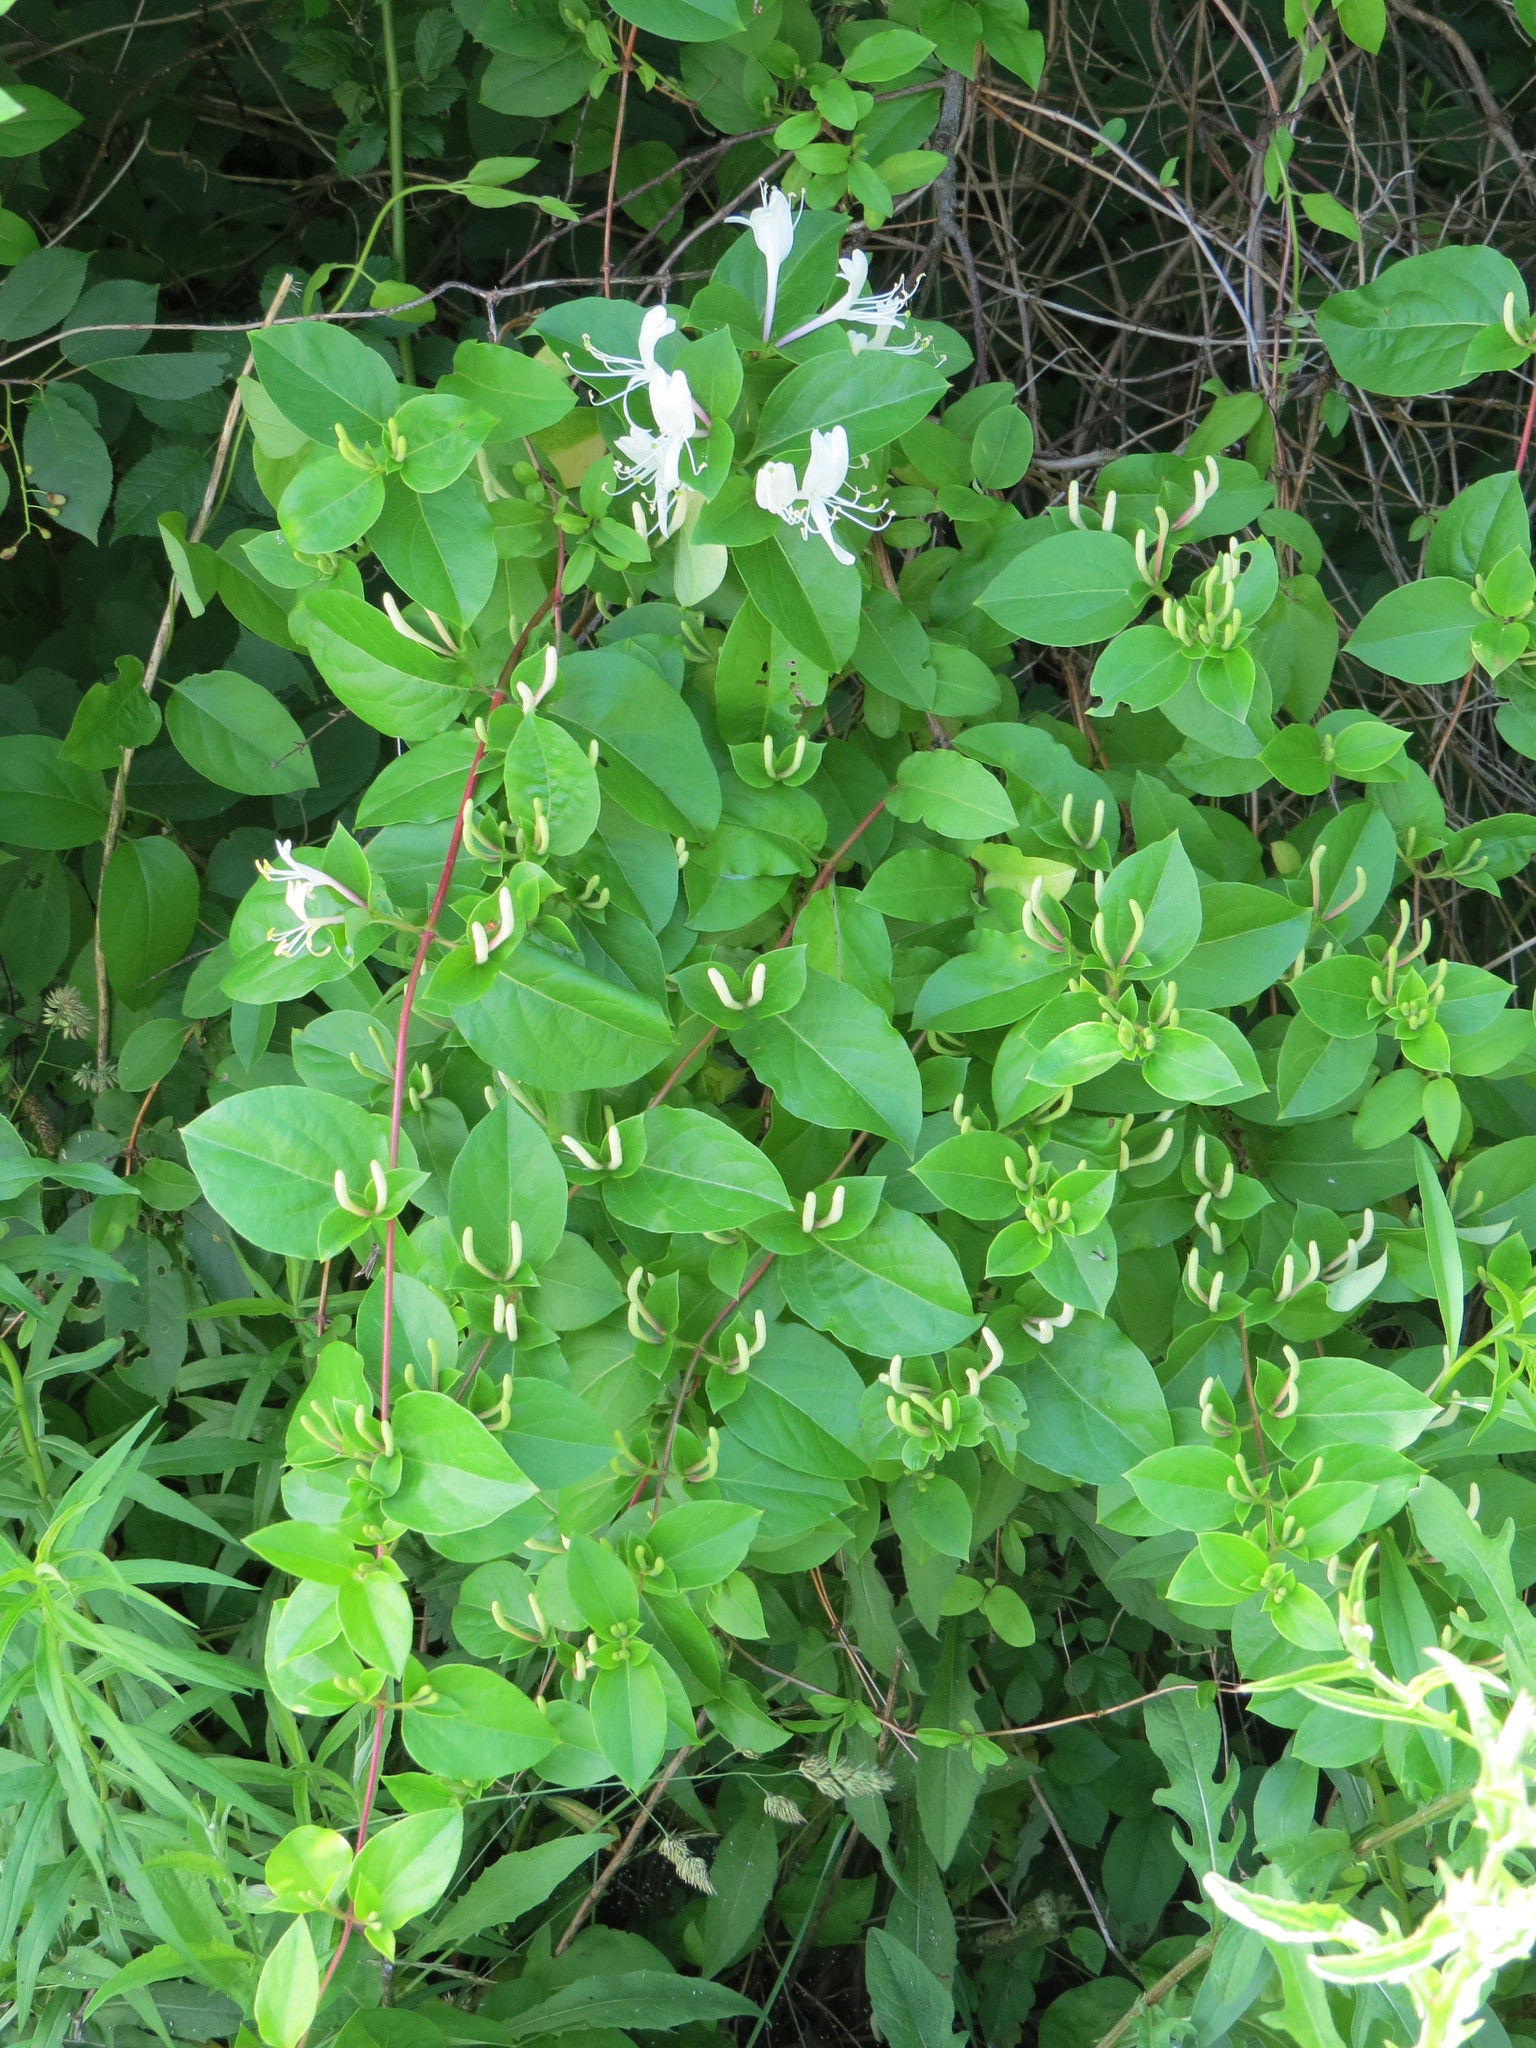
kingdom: Plantae
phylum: Tracheophyta
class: Magnoliopsida
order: Dipsacales
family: Caprifoliaceae
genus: Lonicera
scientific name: Lonicera japonica
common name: Japanese honeysuckle
